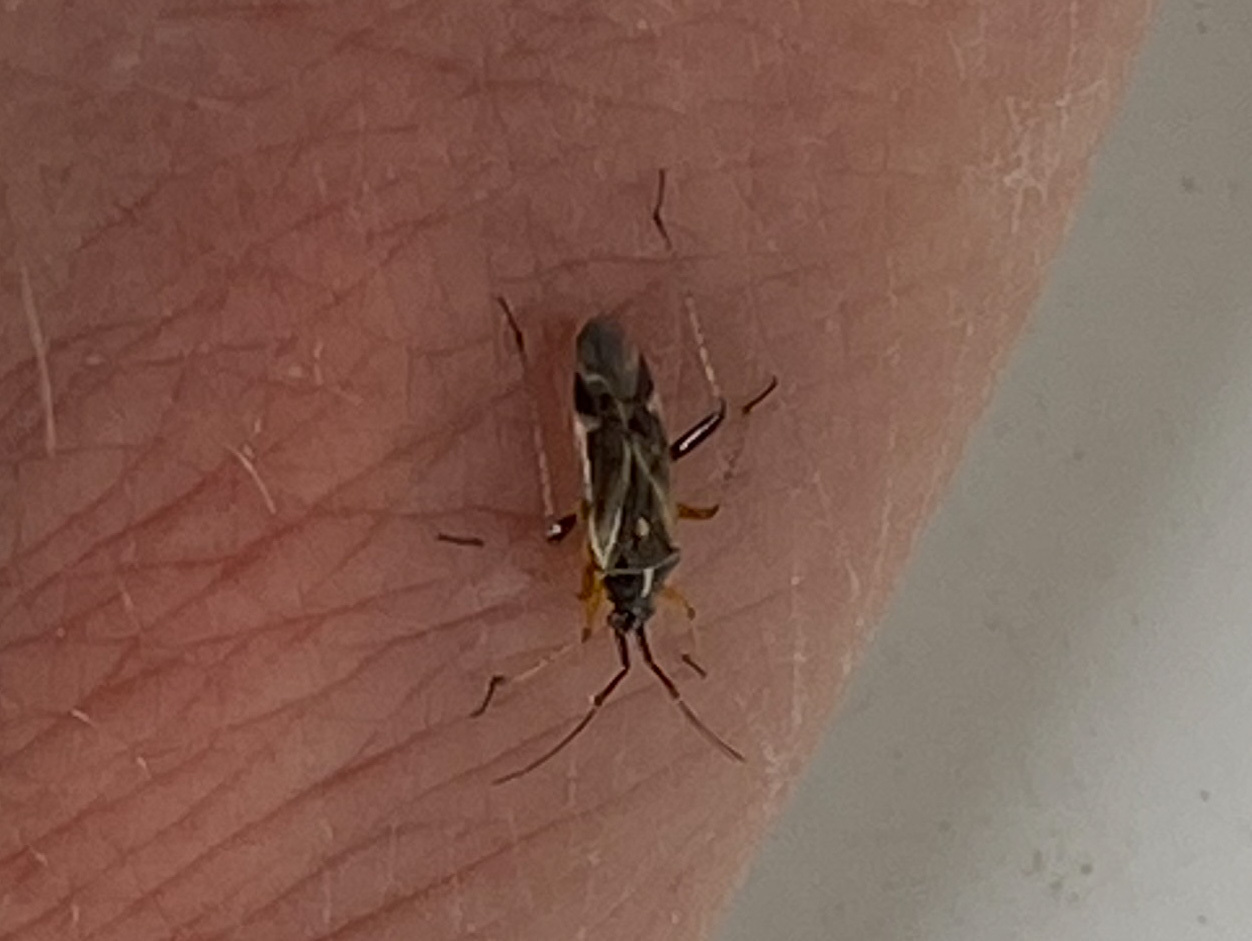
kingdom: Animalia
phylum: Arthropoda
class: Insecta
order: Hemiptera
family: Miridae
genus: Harpocera
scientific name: Harpocera thoracica
